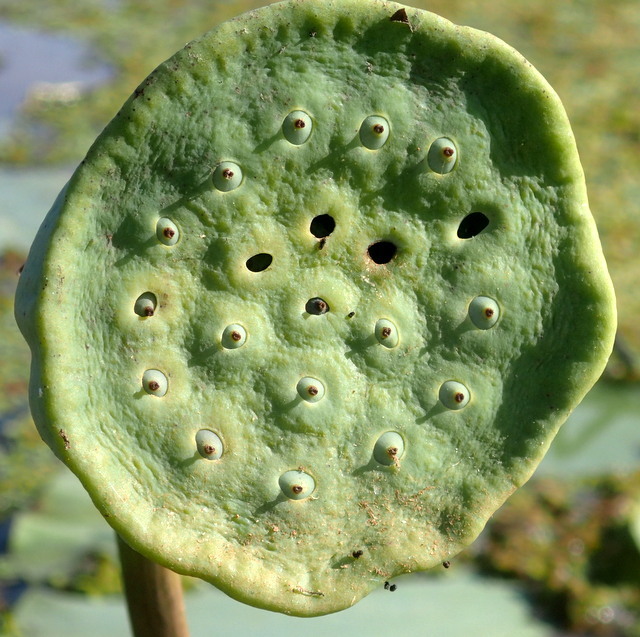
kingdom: Plantae
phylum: Tracheophyta
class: Magnoliopsida
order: Proteales
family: Nelumbonaceae
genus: Nelumbo
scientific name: Nelumbo lutea
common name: American lotus
